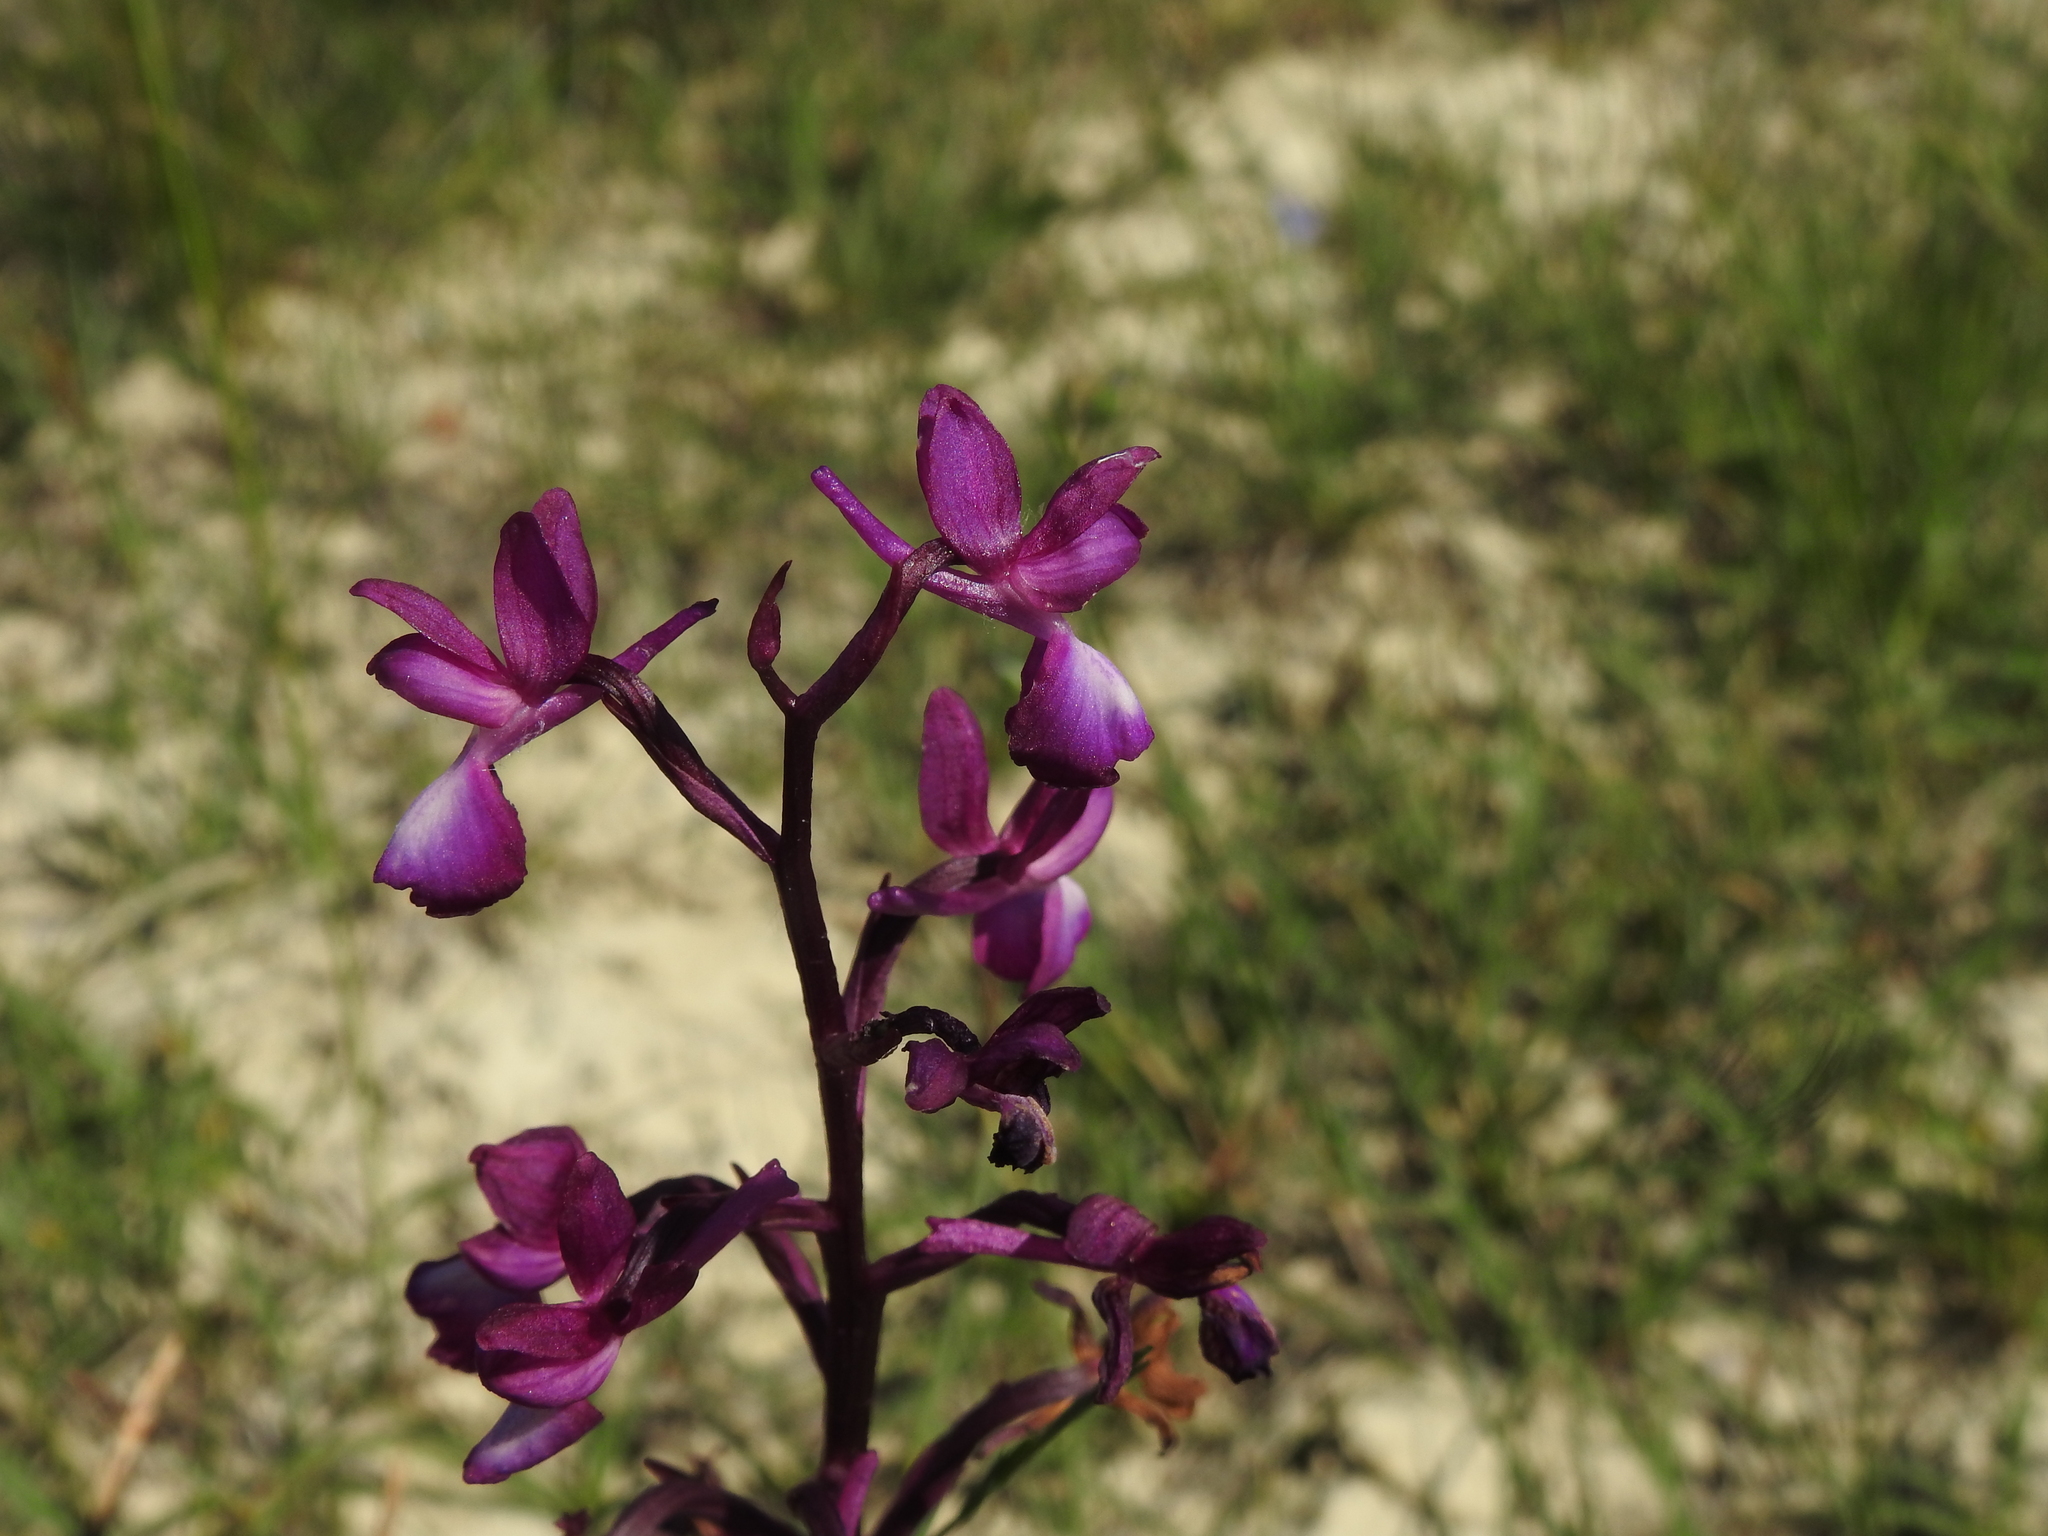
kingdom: Plantae
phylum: Tracheophyta
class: Liliopsida
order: Asparagales
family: Orchidaceae
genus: Anacamptis
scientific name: Anacamptis laxiflora
